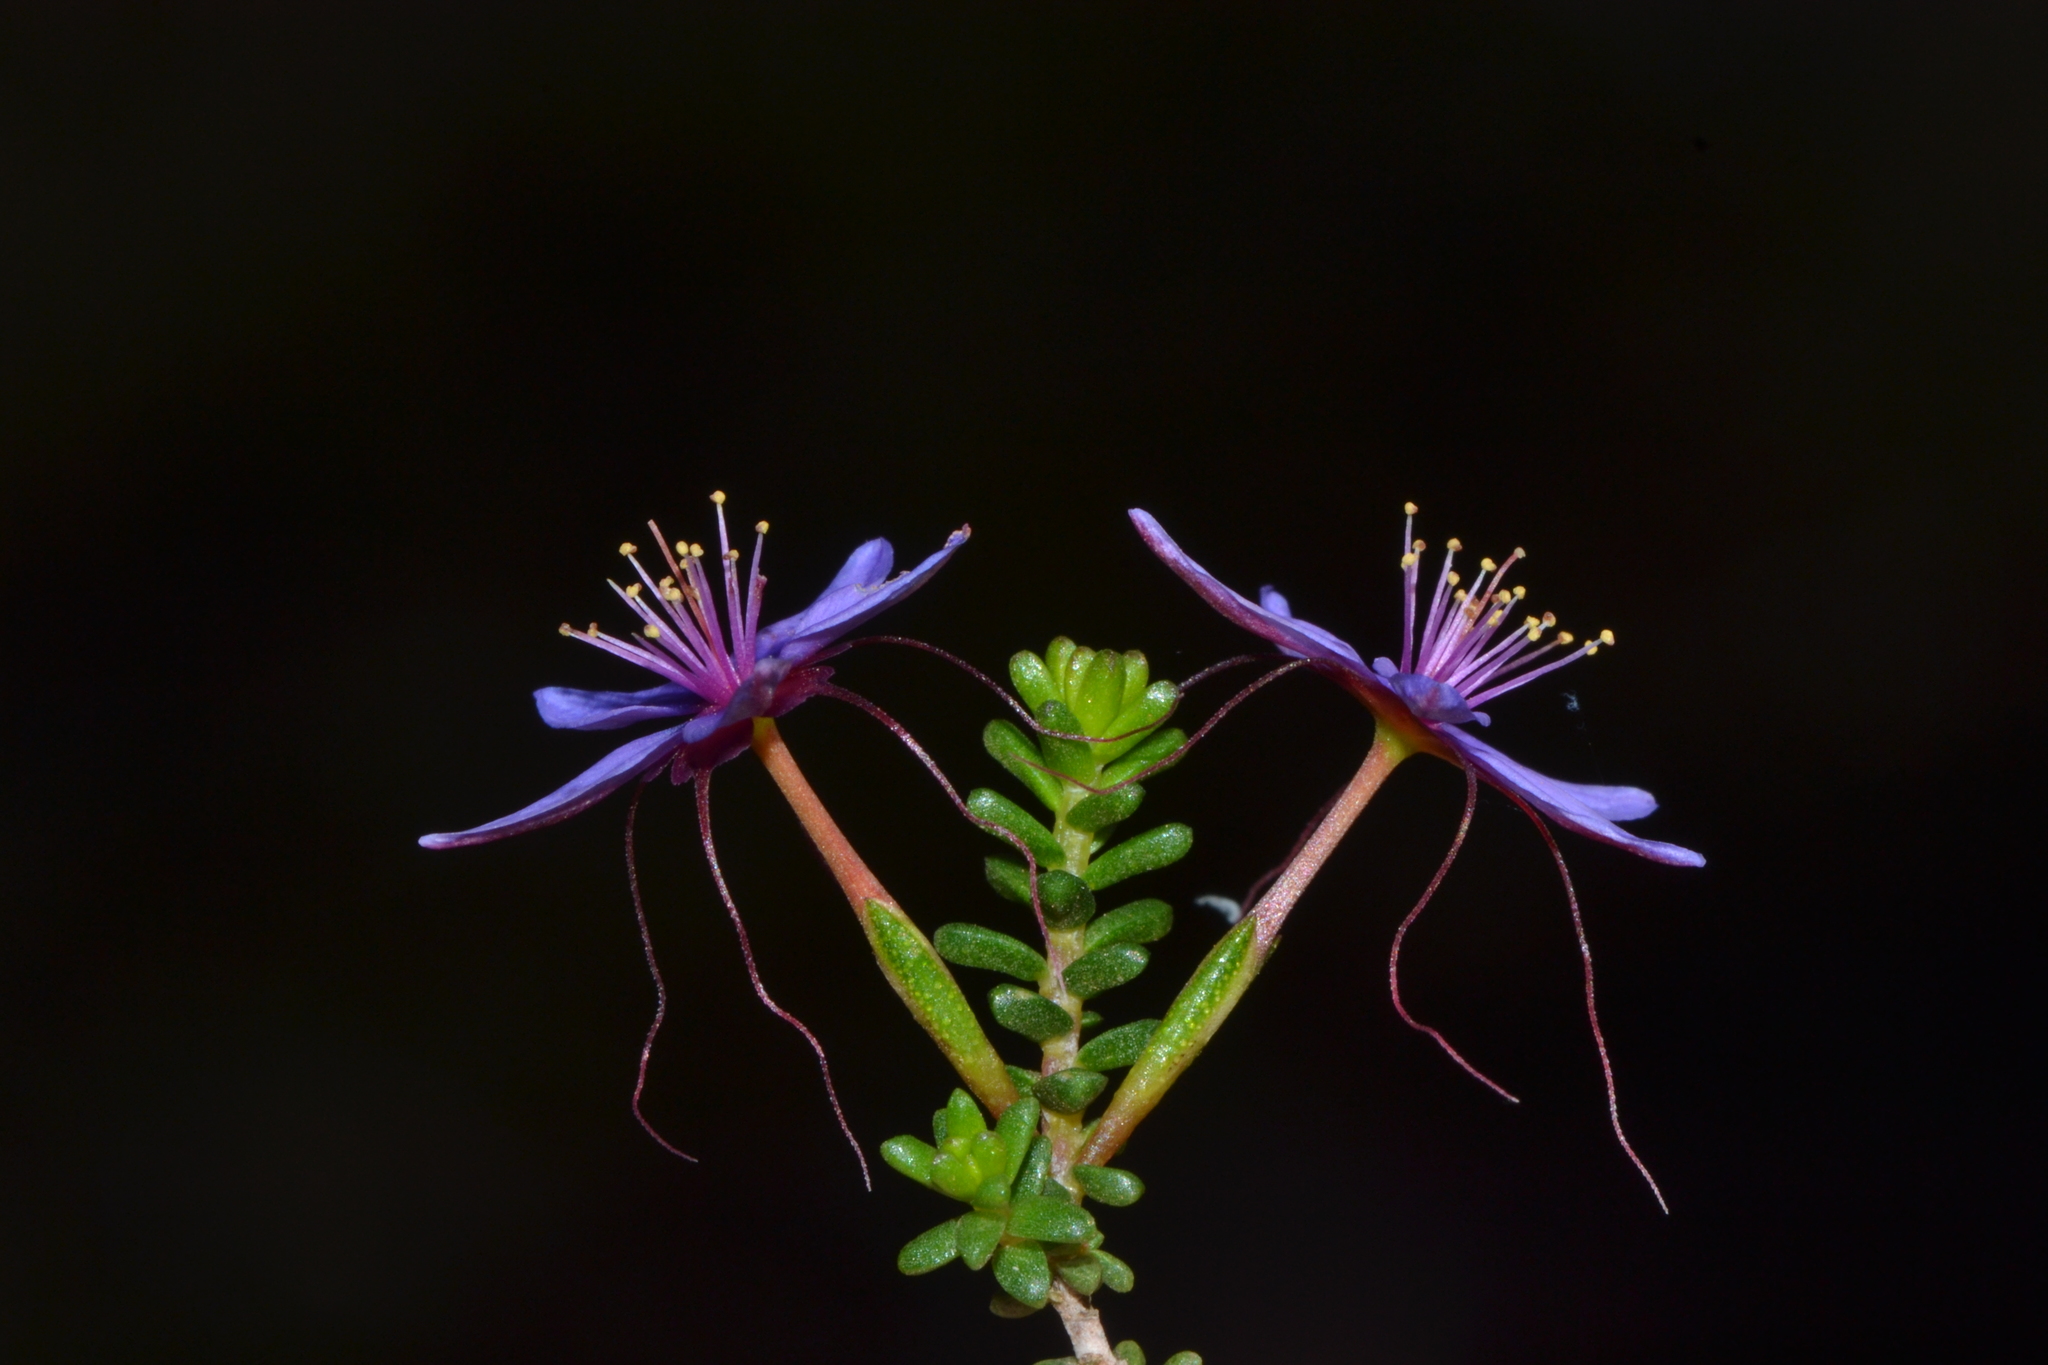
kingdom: Plantae
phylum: Tracheophyta
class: Magnoliopsida
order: Myrtales
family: Myrtaceae
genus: Calytrix
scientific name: Calytrix leschenaultii
